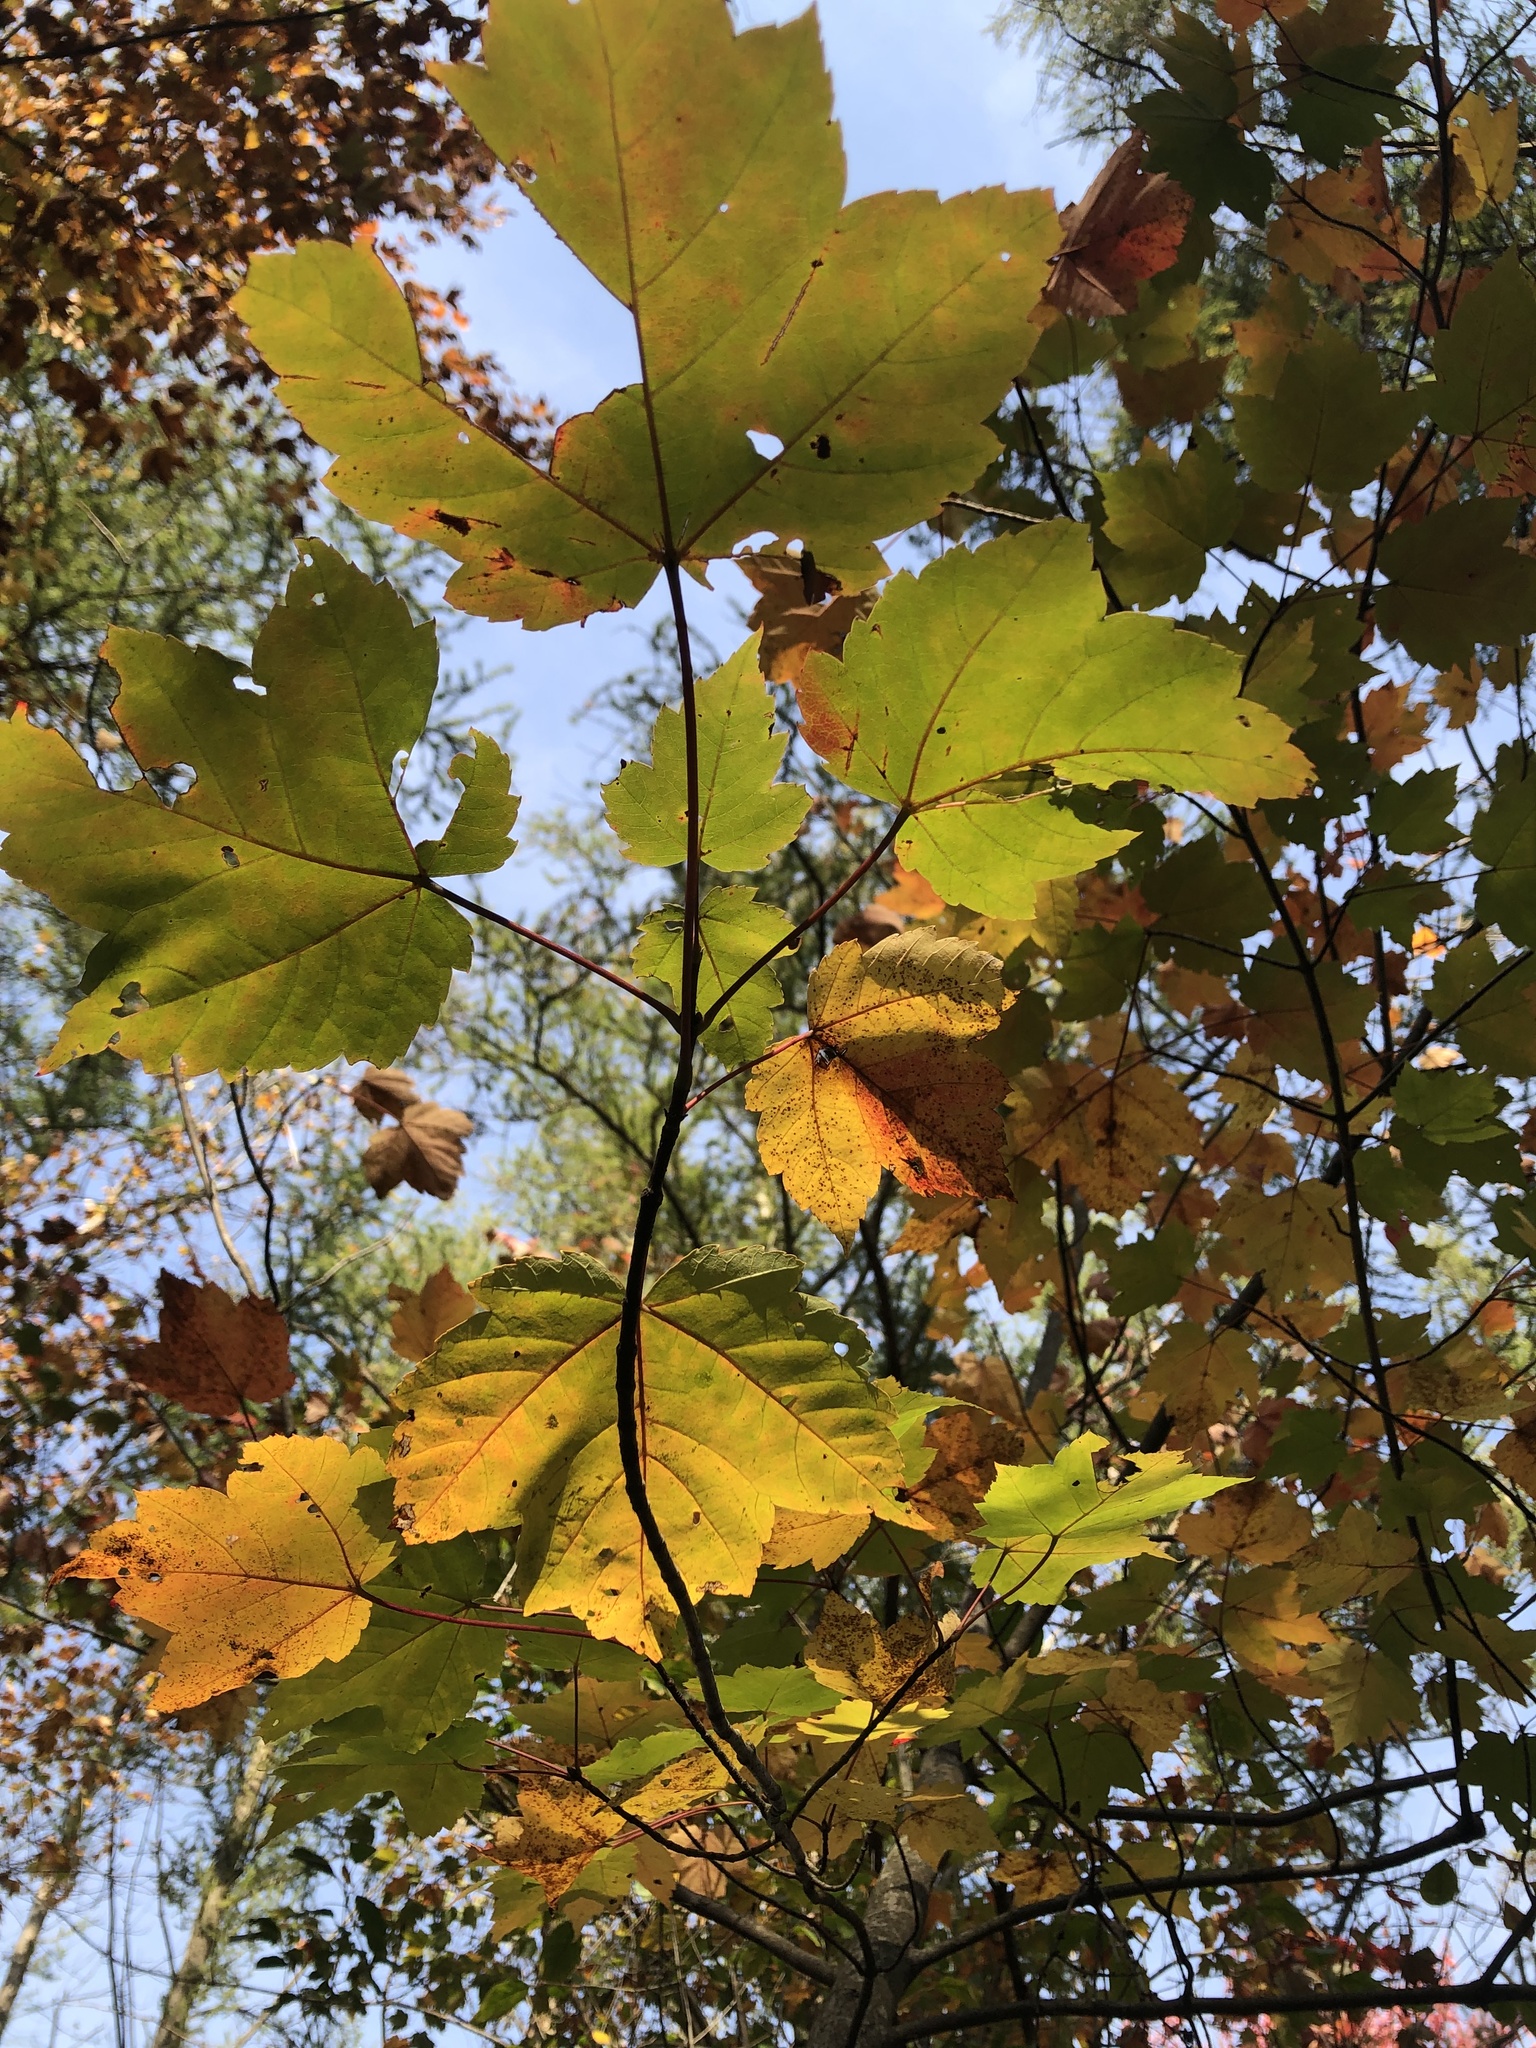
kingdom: Plantae
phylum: Tracheophyta
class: Magnoliopsida
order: Sapindales
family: Sapindaceae
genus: Acer
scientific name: Acer rubrum
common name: Red maple
